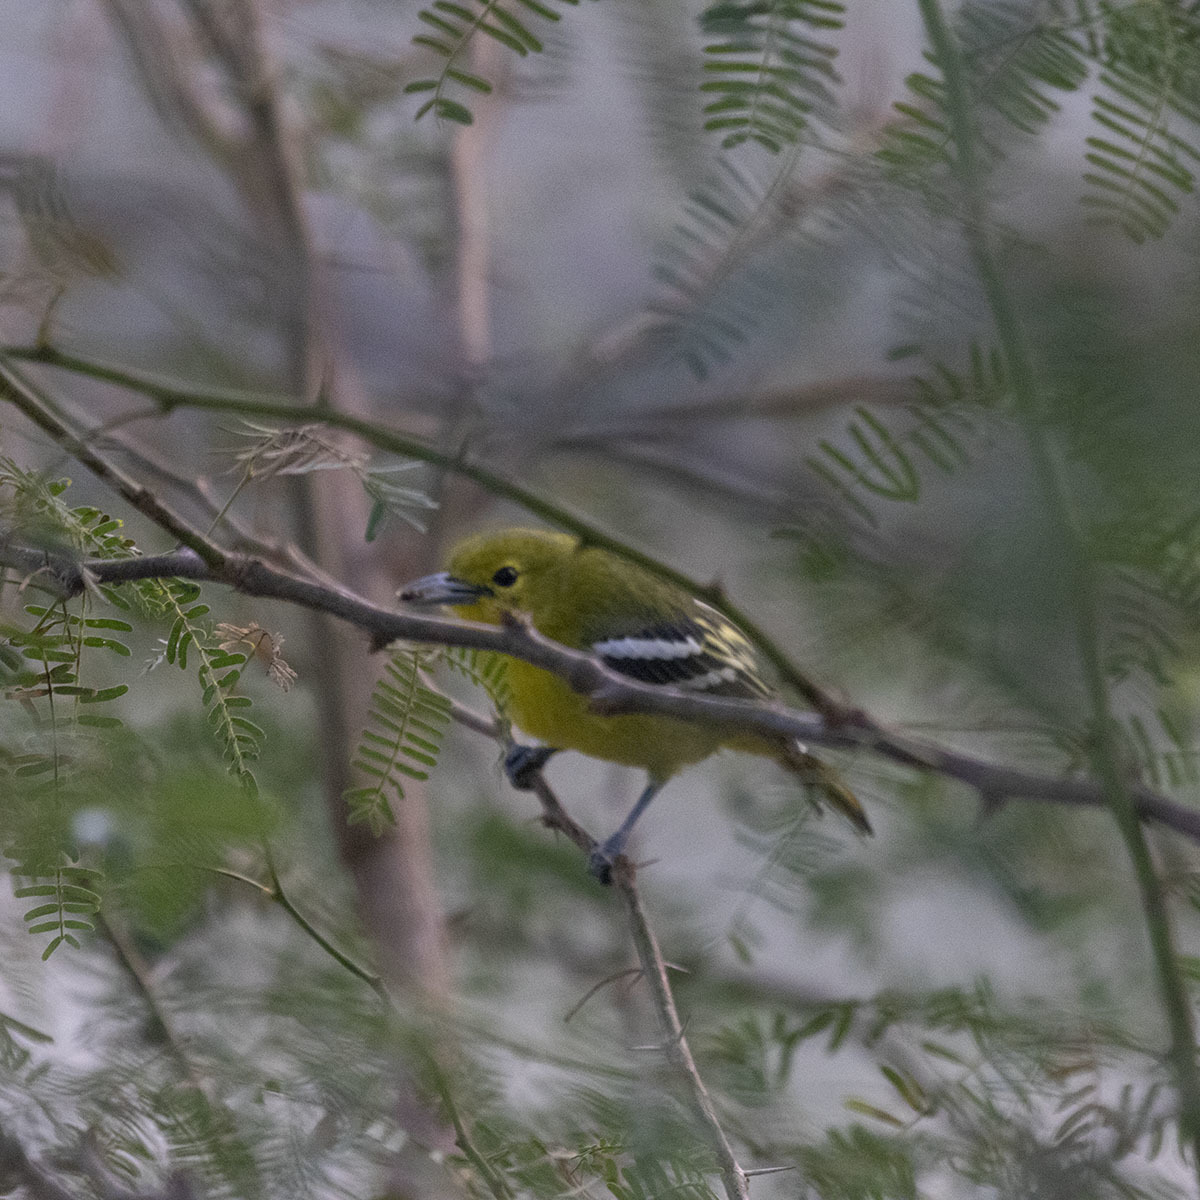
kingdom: Animalia
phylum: Chordata
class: Aves
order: Passeriformes
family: Aegithinidae
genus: Aegithina
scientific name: Aegithina tiphia
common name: Common iora
